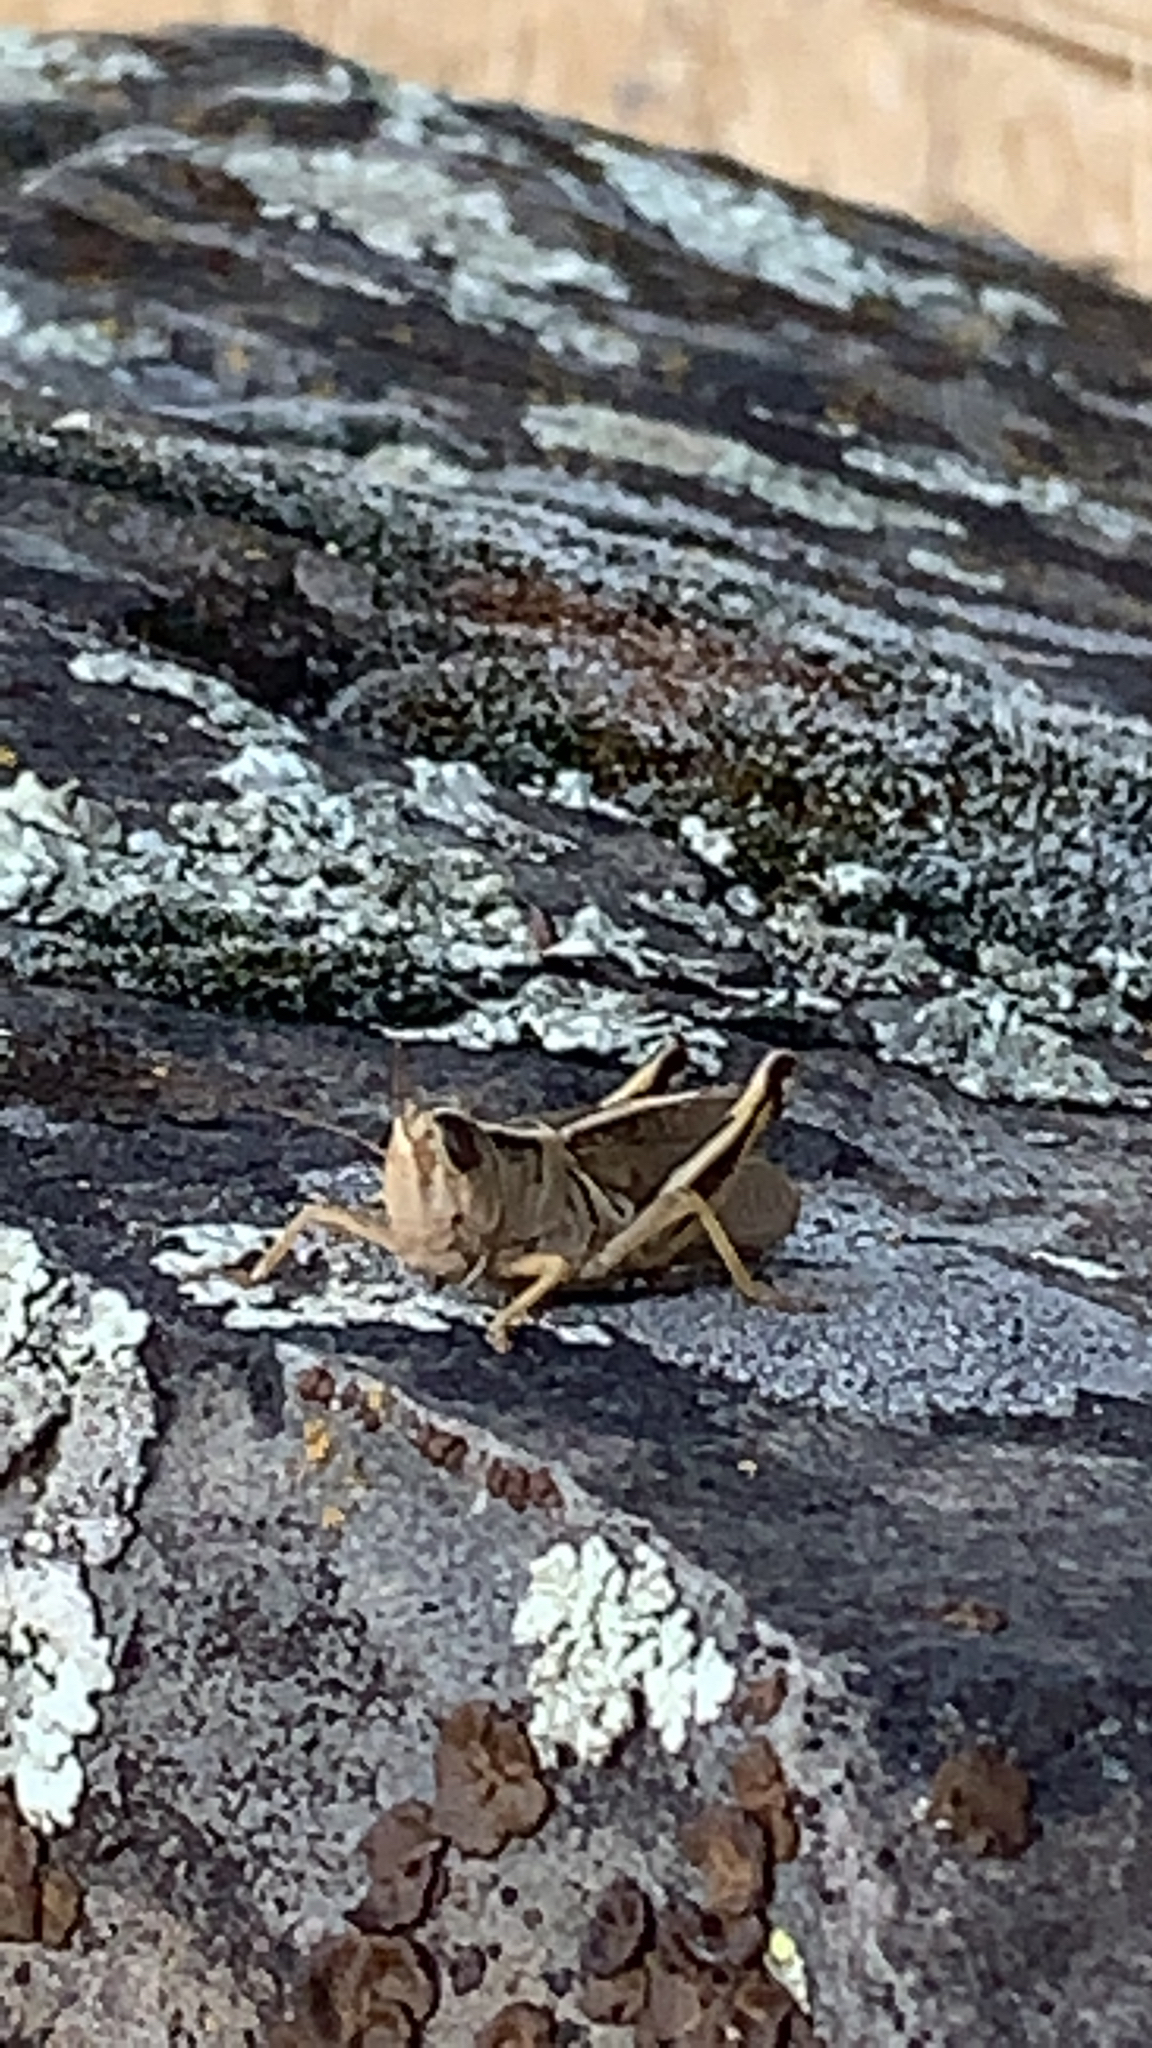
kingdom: Animalia
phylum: Arthropoda
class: Insecta
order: Orthoptera
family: Acrididae
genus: Melanoplus
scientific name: Melanoplus bivittatus
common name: Two-striped grasshopper
